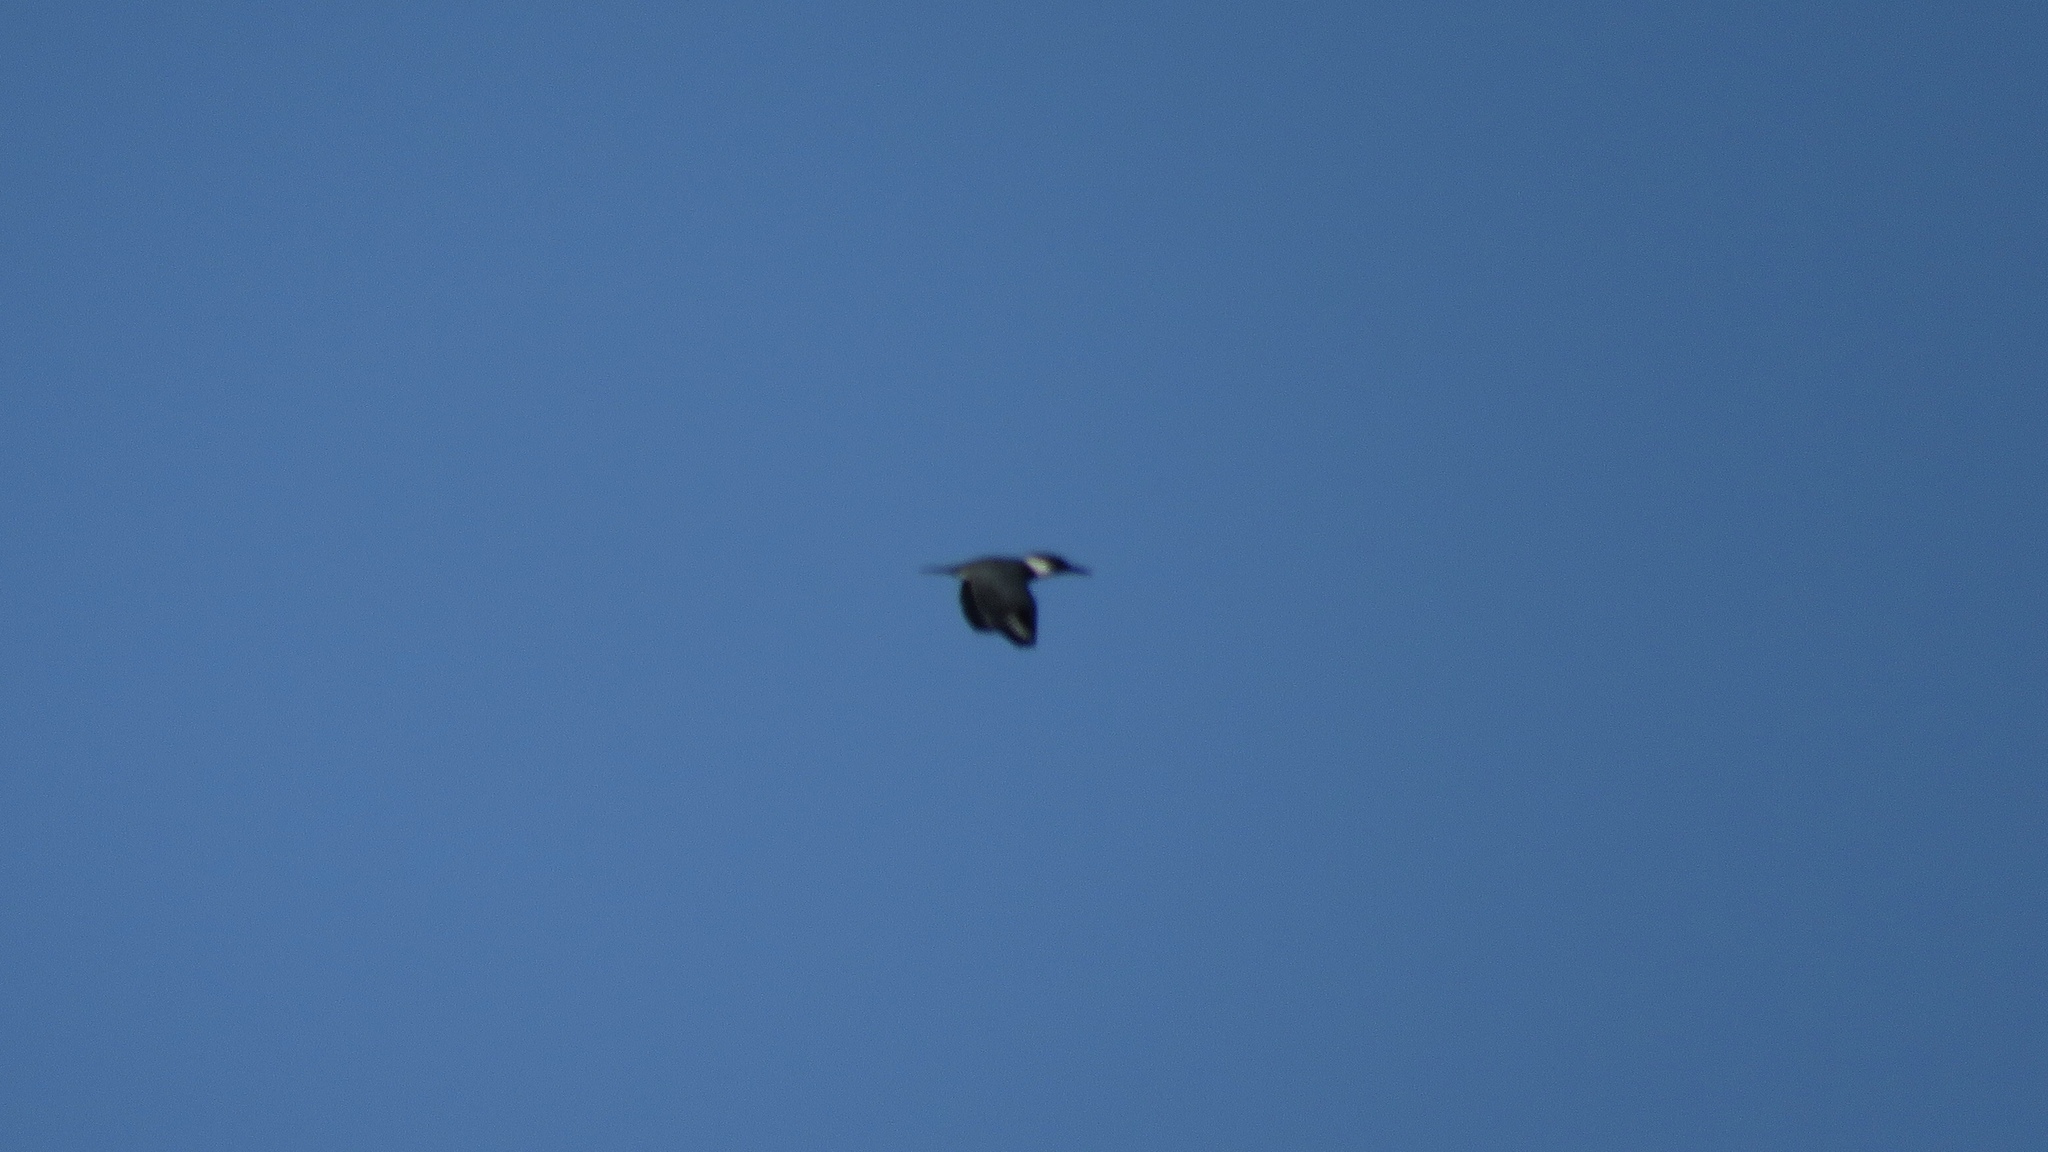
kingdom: Animalia
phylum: Chordata
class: Aves
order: Coraciiformes
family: Alcedinidae
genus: Megaceryle
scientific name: Megaceryle alcyon
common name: Belted kingfisher
